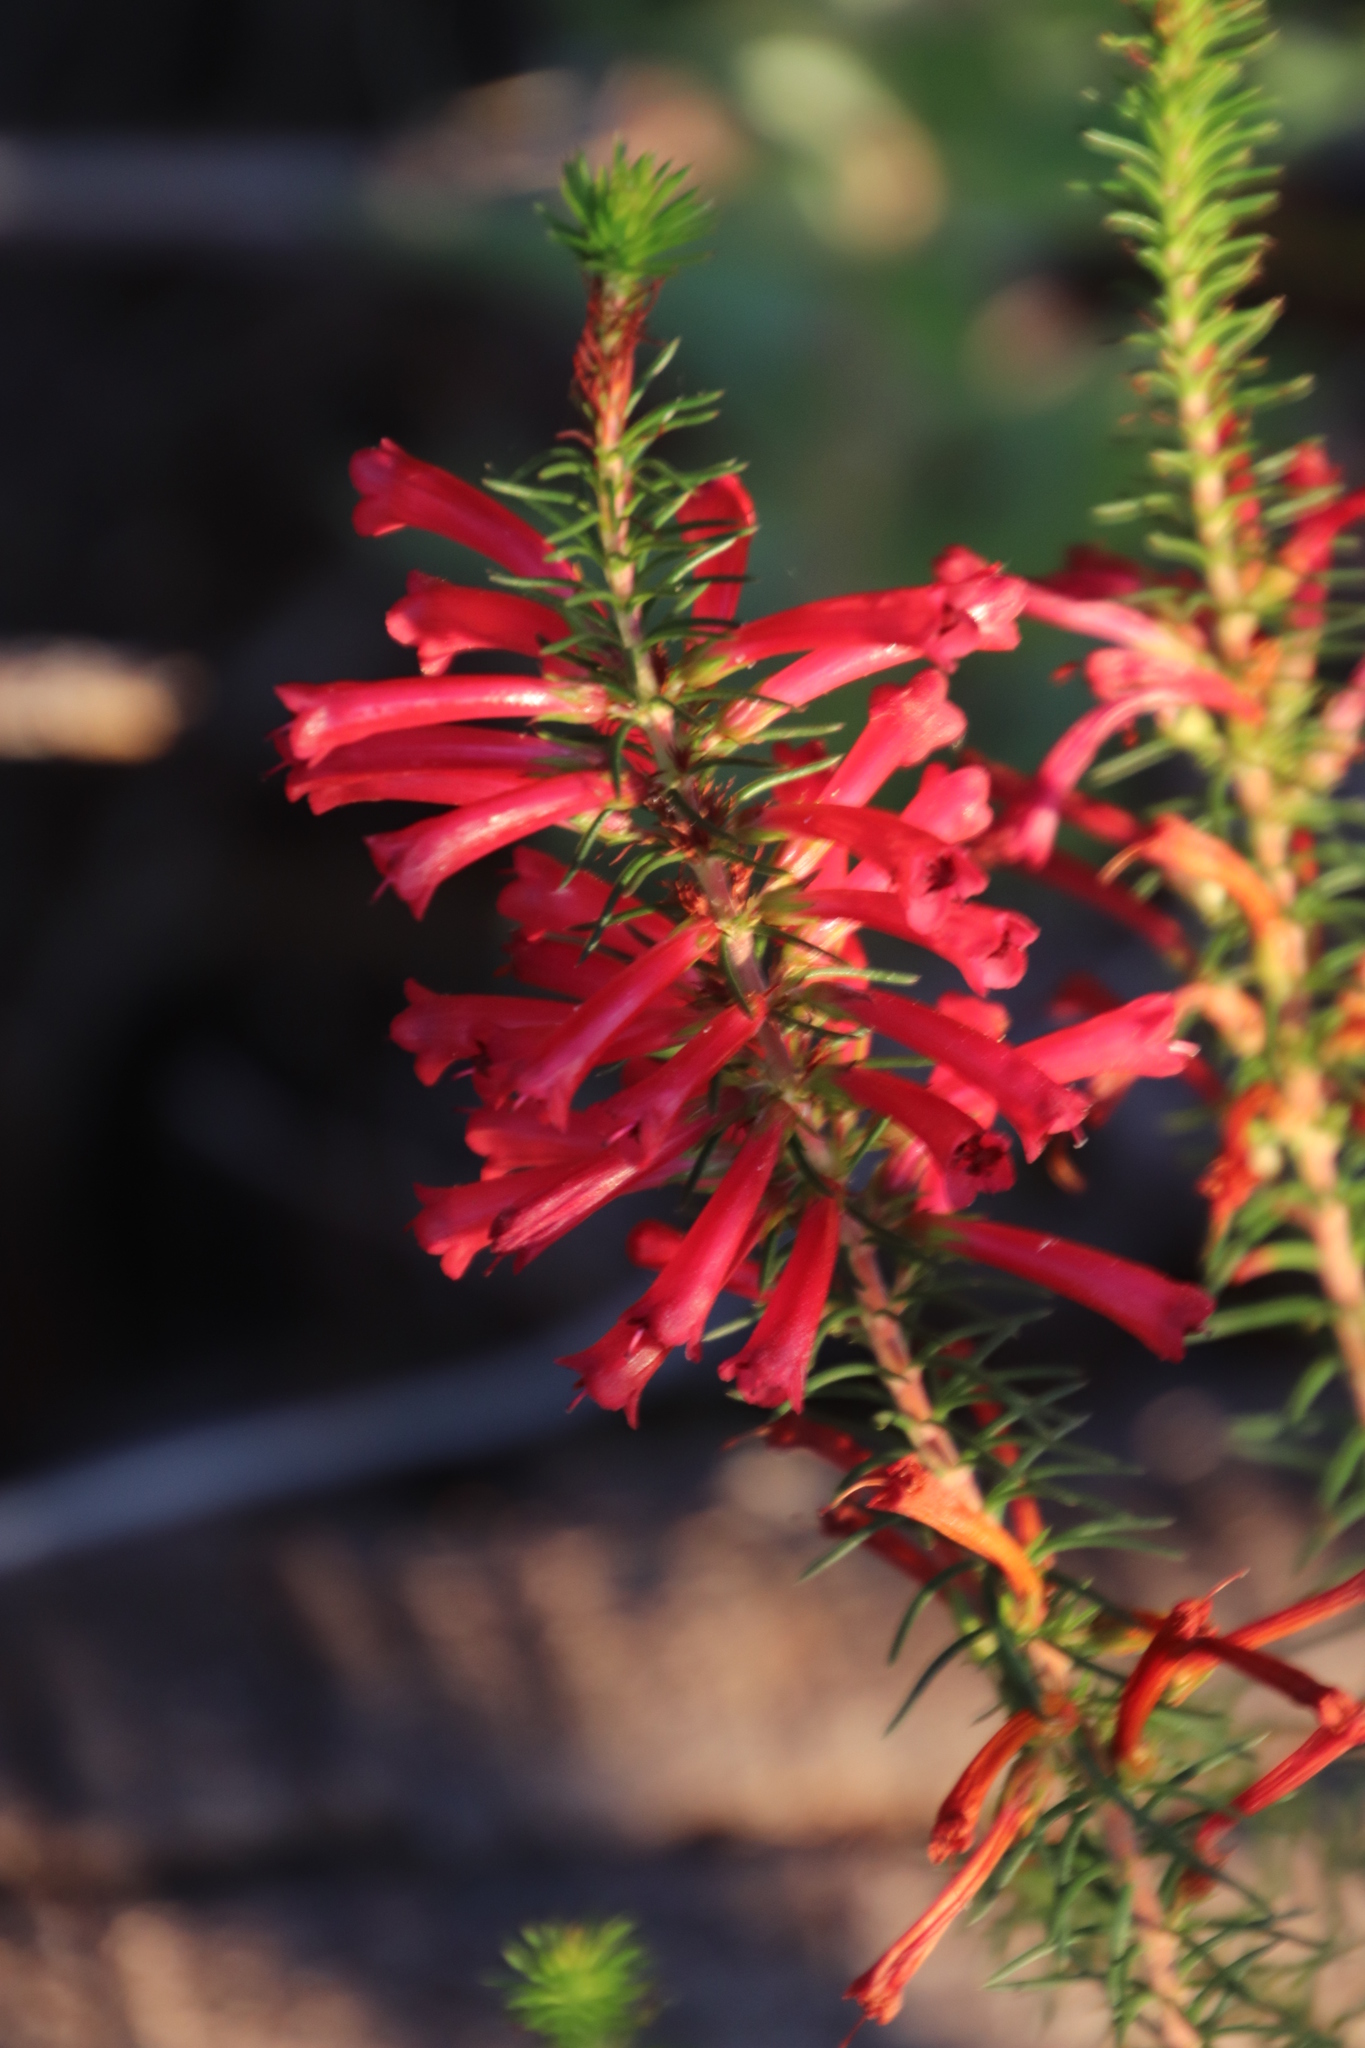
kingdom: Plantae
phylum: Tracheophyta
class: Magnoliopsida
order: Ericales
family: Ericaceae
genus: Erica
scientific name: Erica abietina
